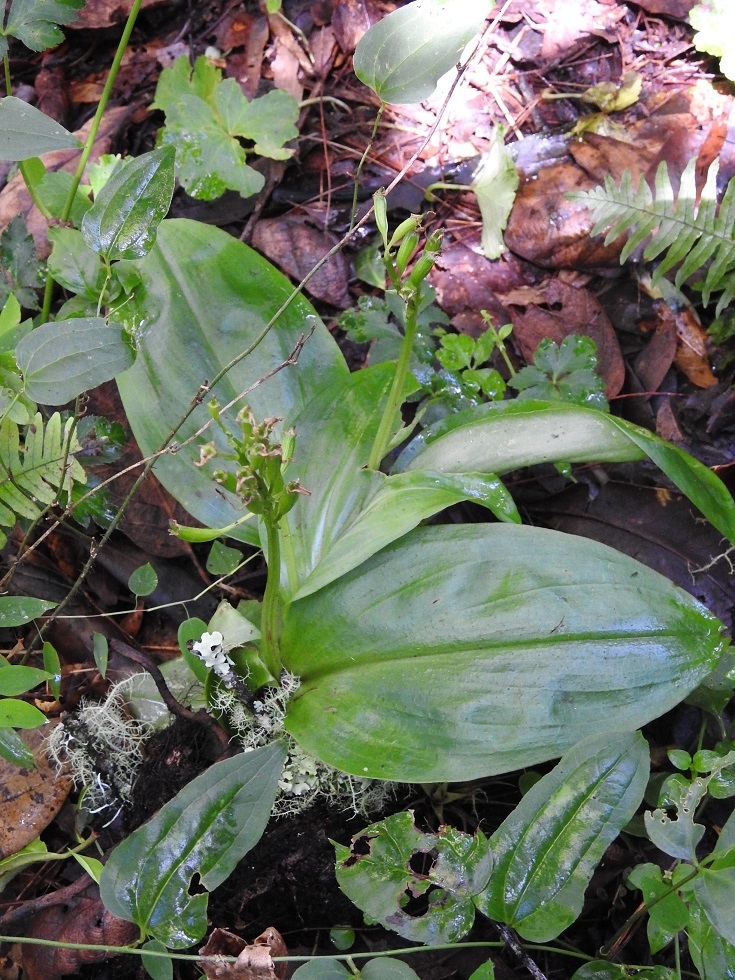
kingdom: Plantae
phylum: Tracheophyta
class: Liliopsida
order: Asparagales
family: Orchidaceae
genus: Malaxis
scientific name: Malaxis lepidota
